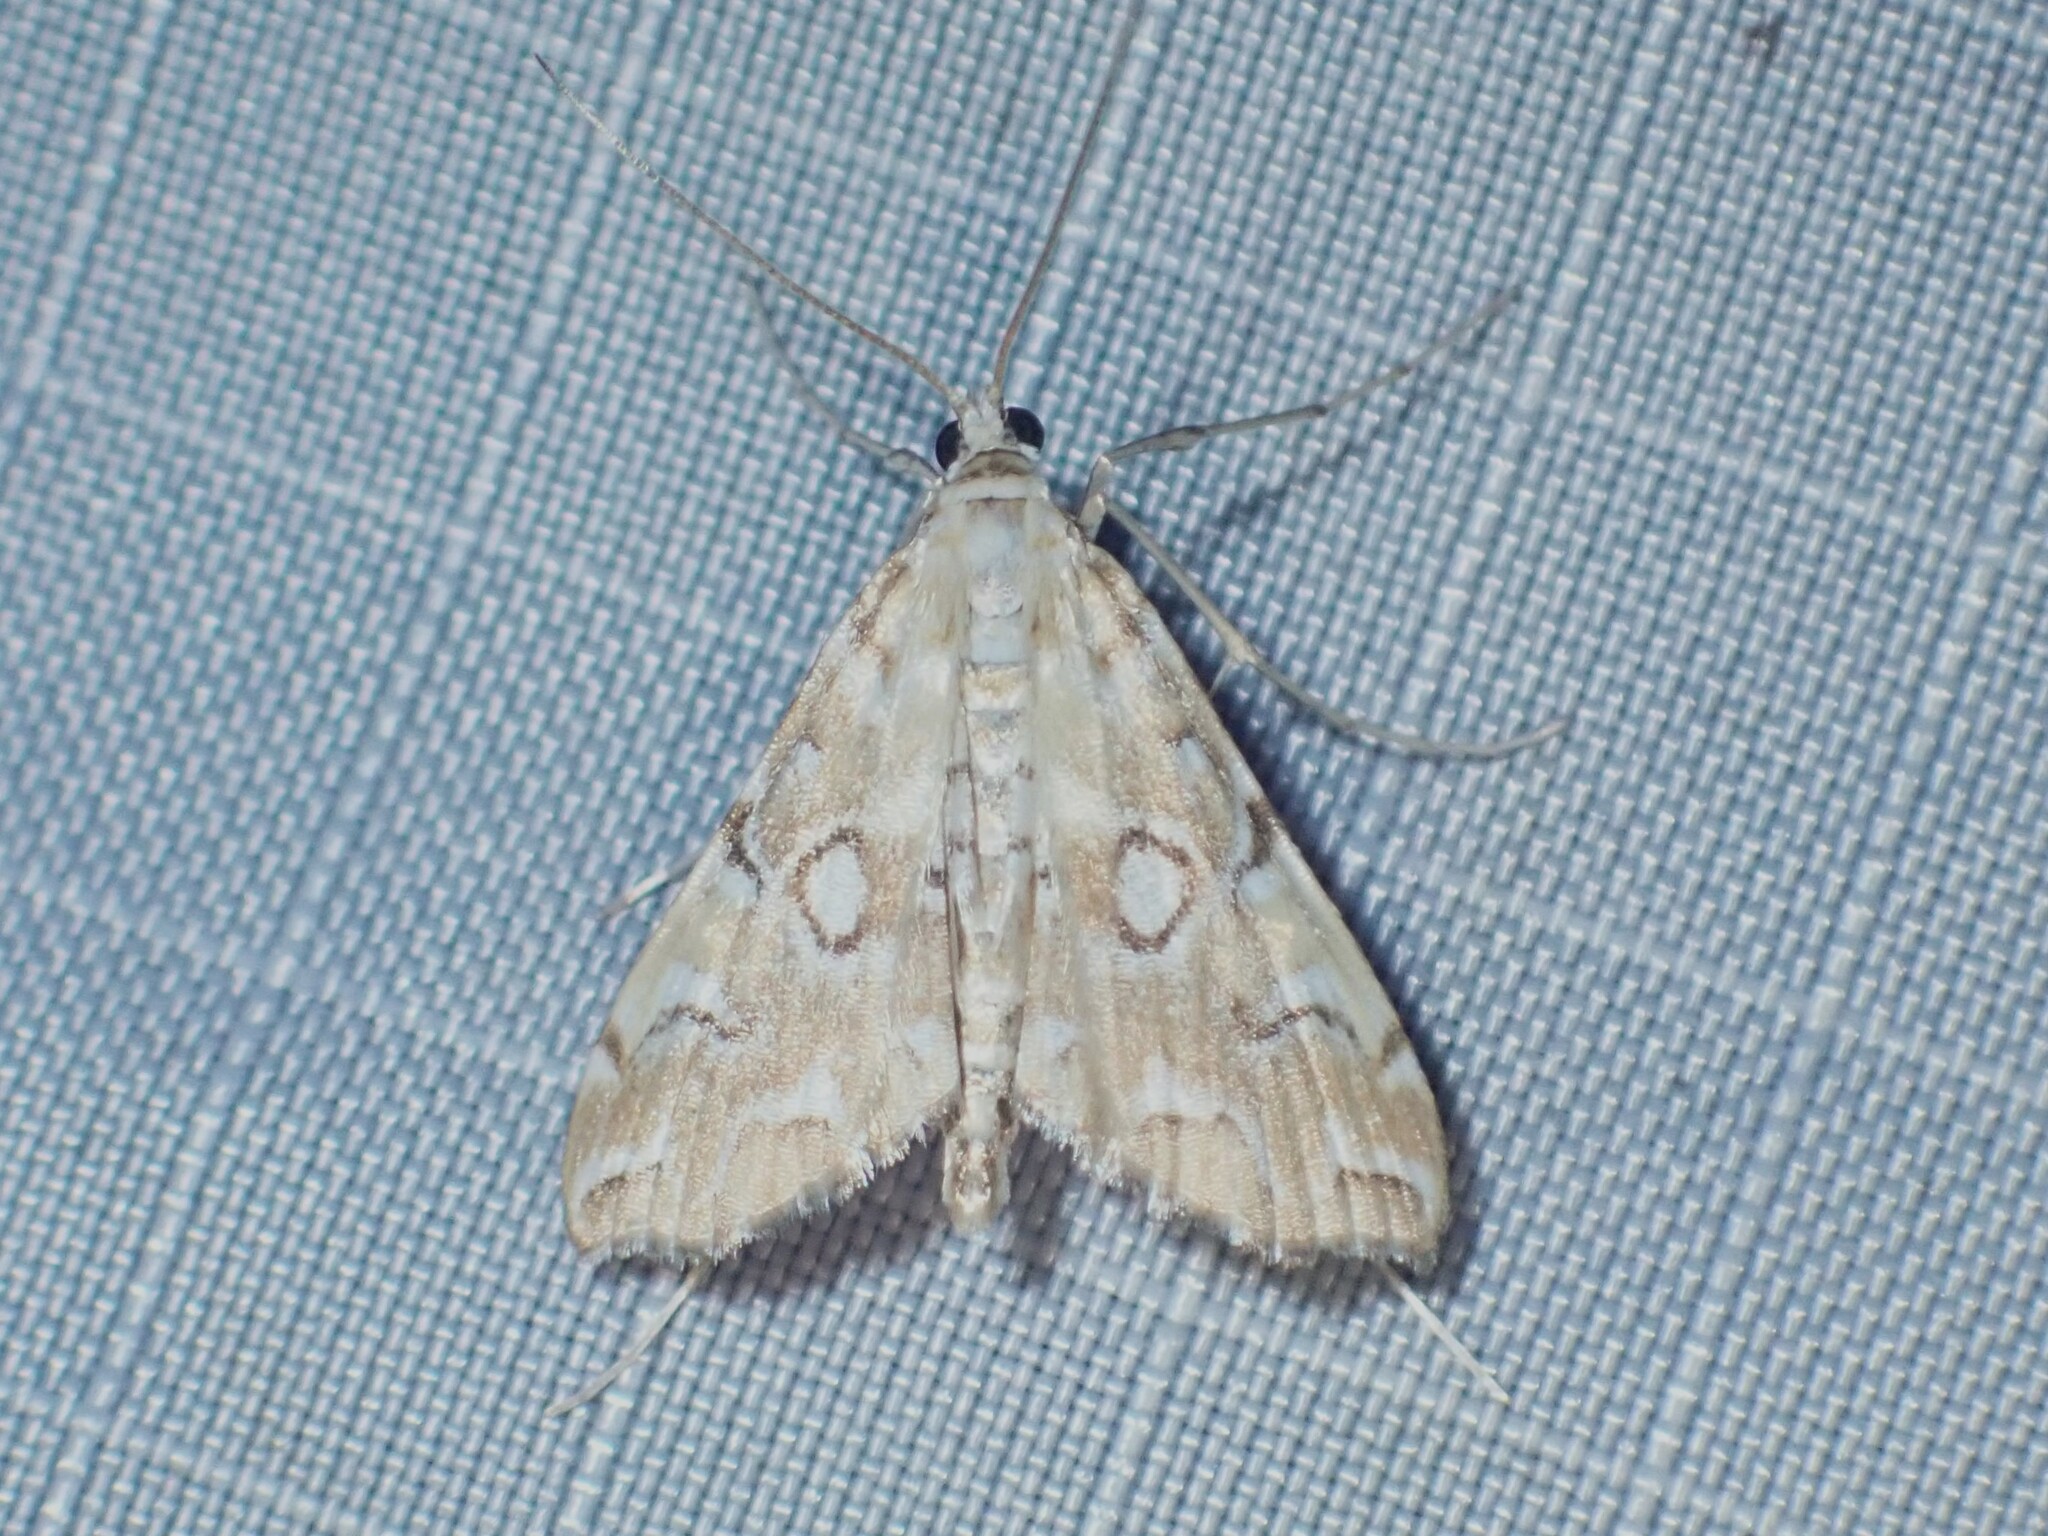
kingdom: Animalia
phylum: Arthropoda
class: Insecta
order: Lepidoptera
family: Crambidae
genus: Elophila
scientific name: Elophila icciusalis
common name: Pondside pyralid moth
